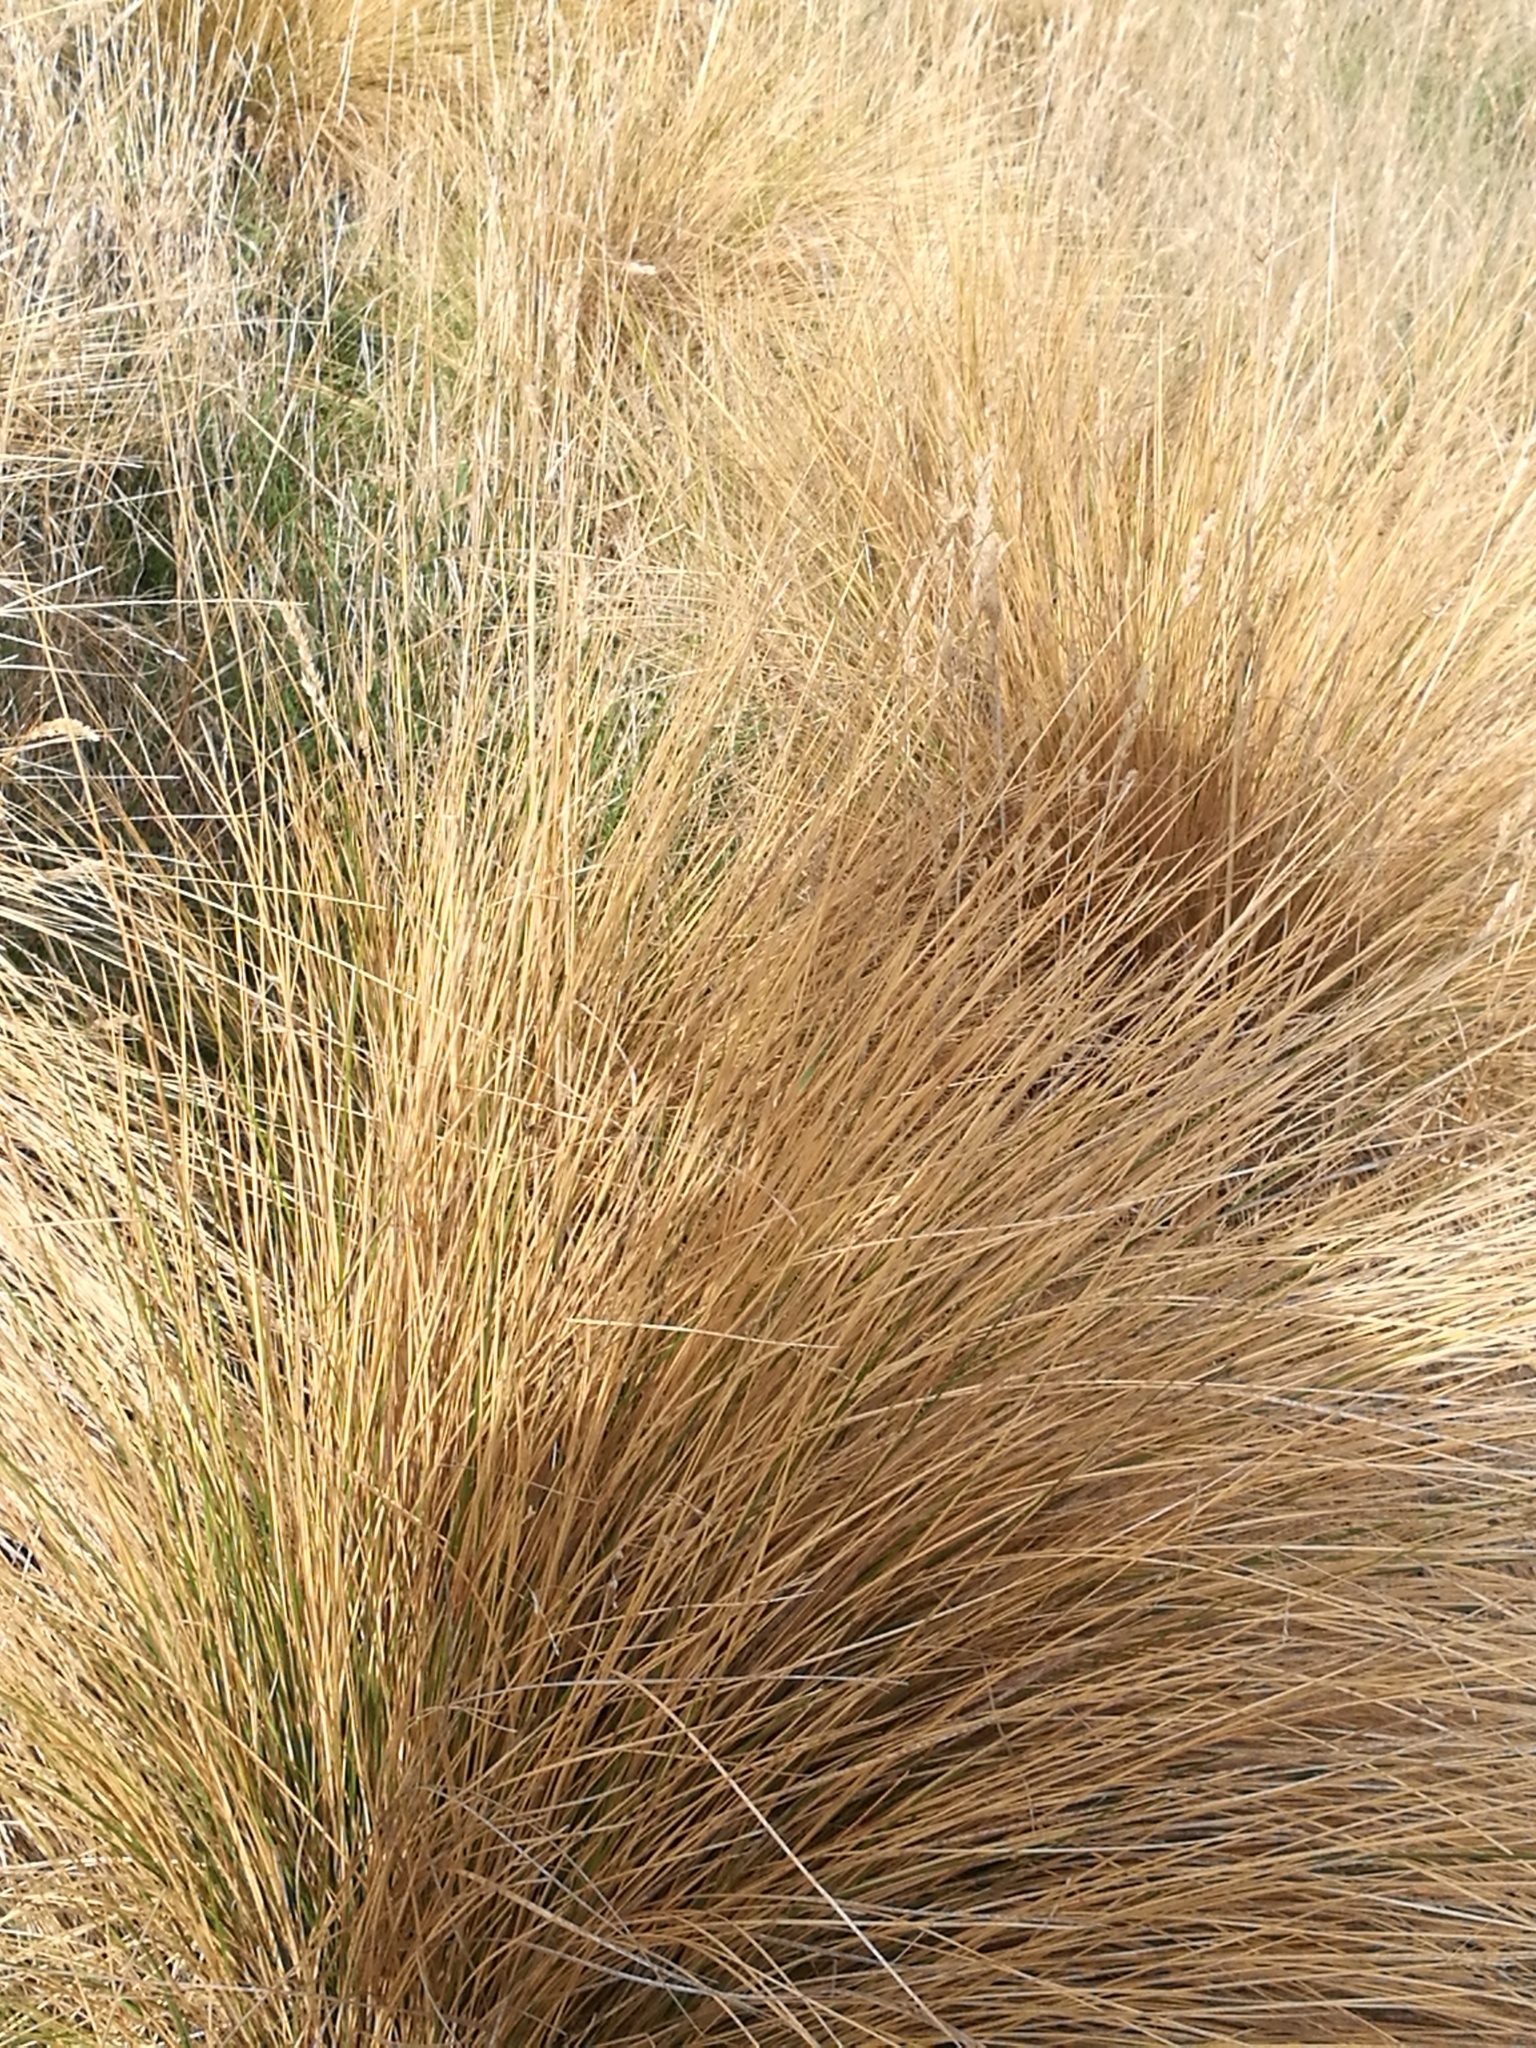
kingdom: Plantae
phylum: Tracheophyta
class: Liliopsida
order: Poales
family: Poaceae
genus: Poa
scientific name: Poa cita
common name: Silver tussock
